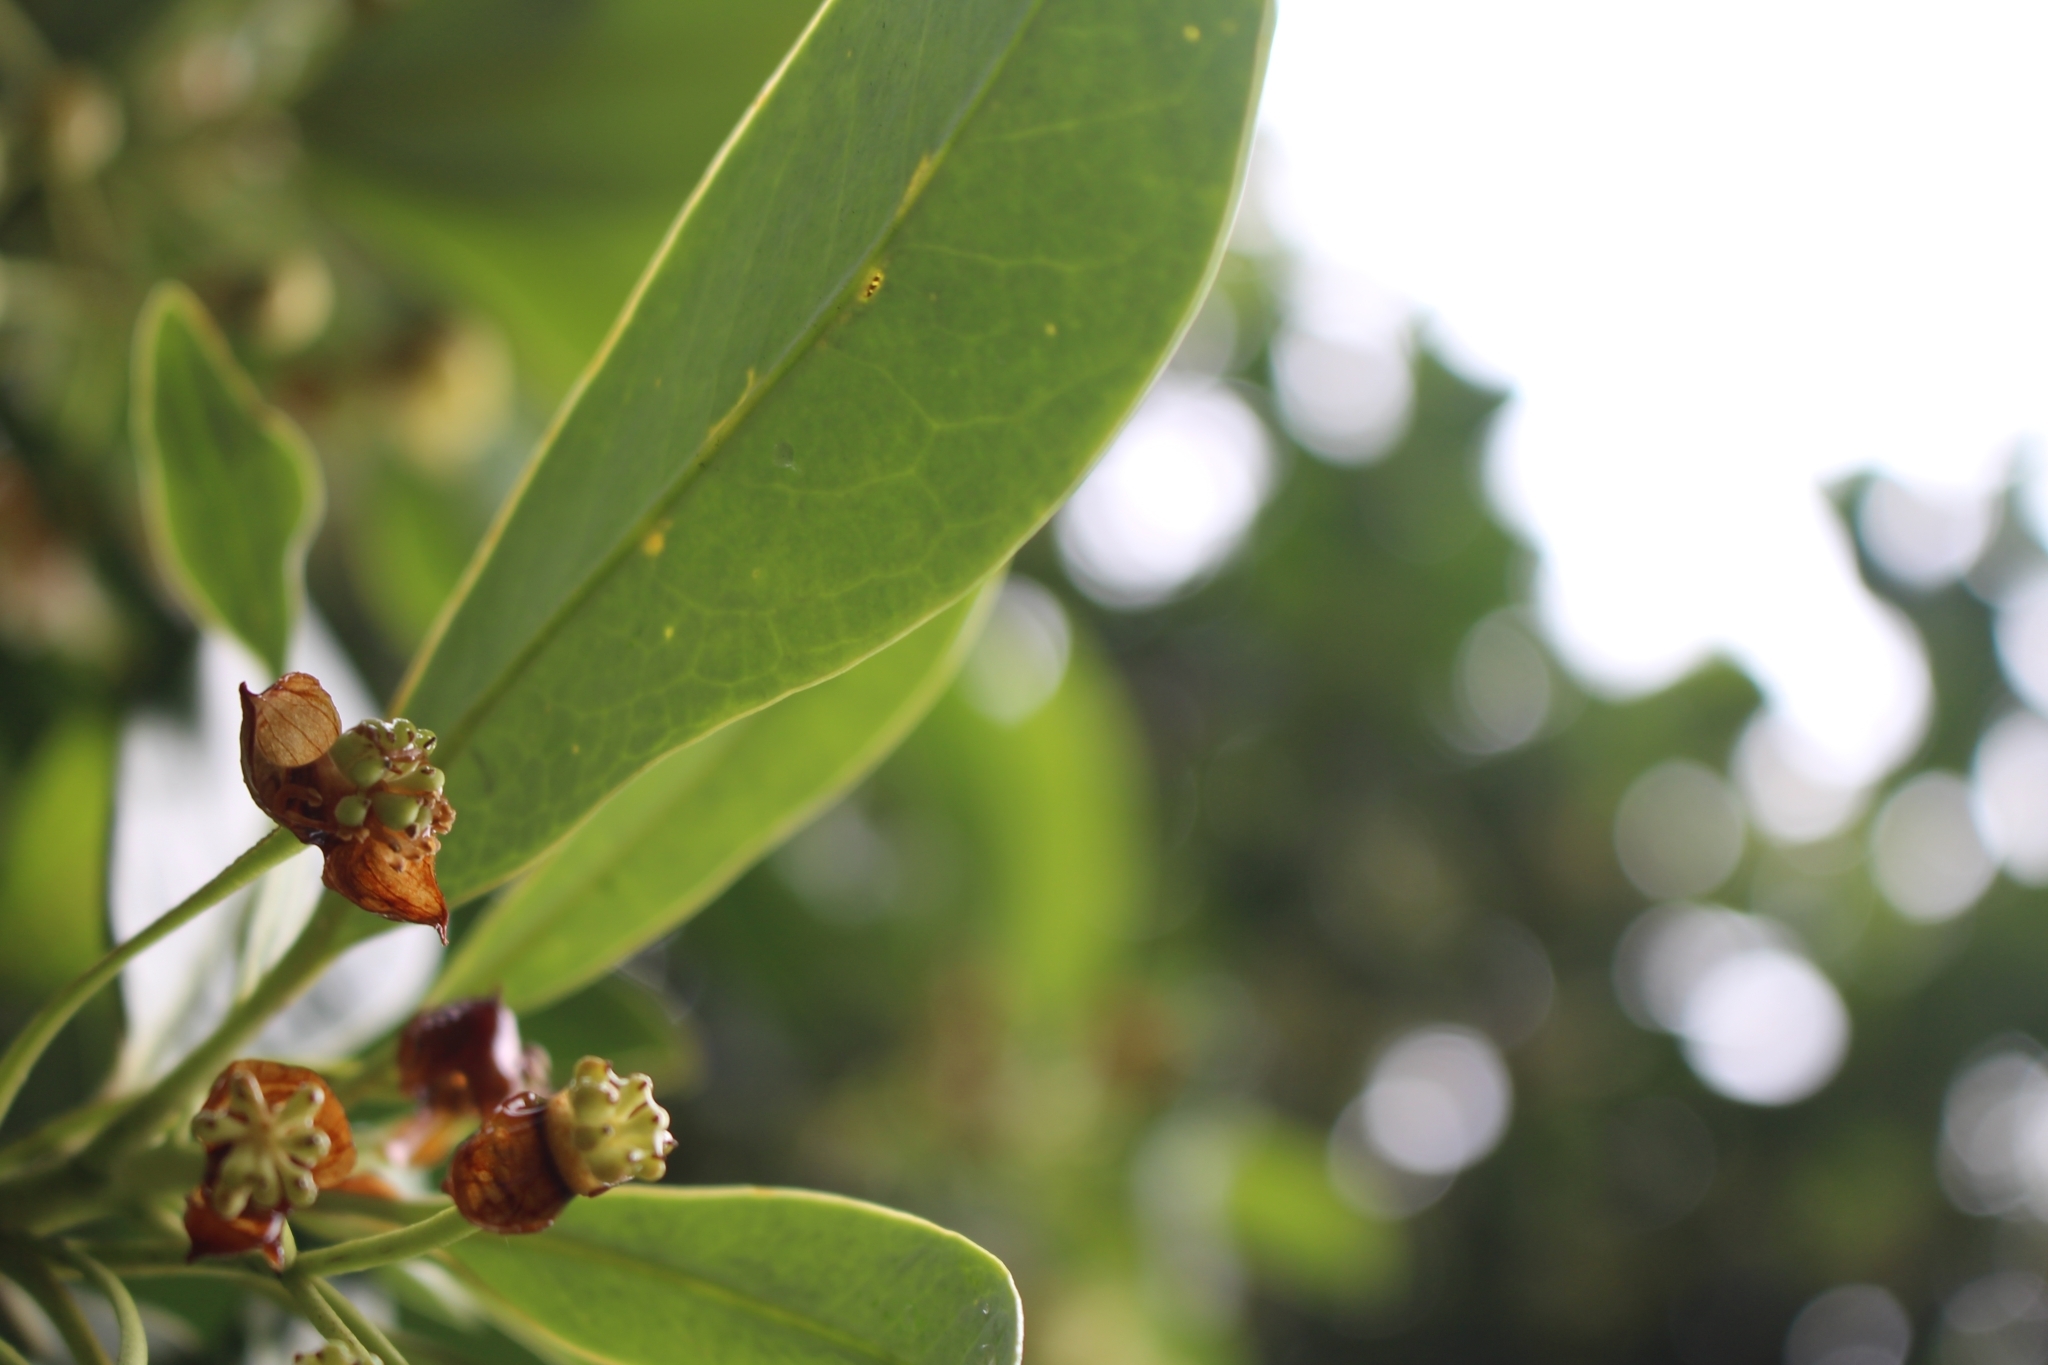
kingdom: Plantae
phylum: Tracheophyta
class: Magnoliopsida
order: Canellales
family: Winteraceae
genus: Drimys
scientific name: Drimys granadensis
